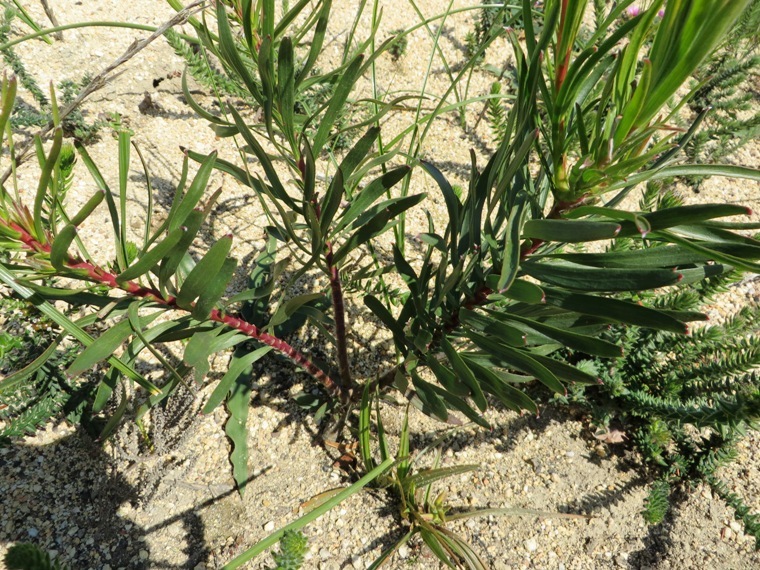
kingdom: Plantae
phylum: Tracheophyta
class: Magnoliopsida
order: Proteales
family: Proteaceae
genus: Leucospermum
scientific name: Leucospermum lineare
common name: Needle-leaf pincushion
